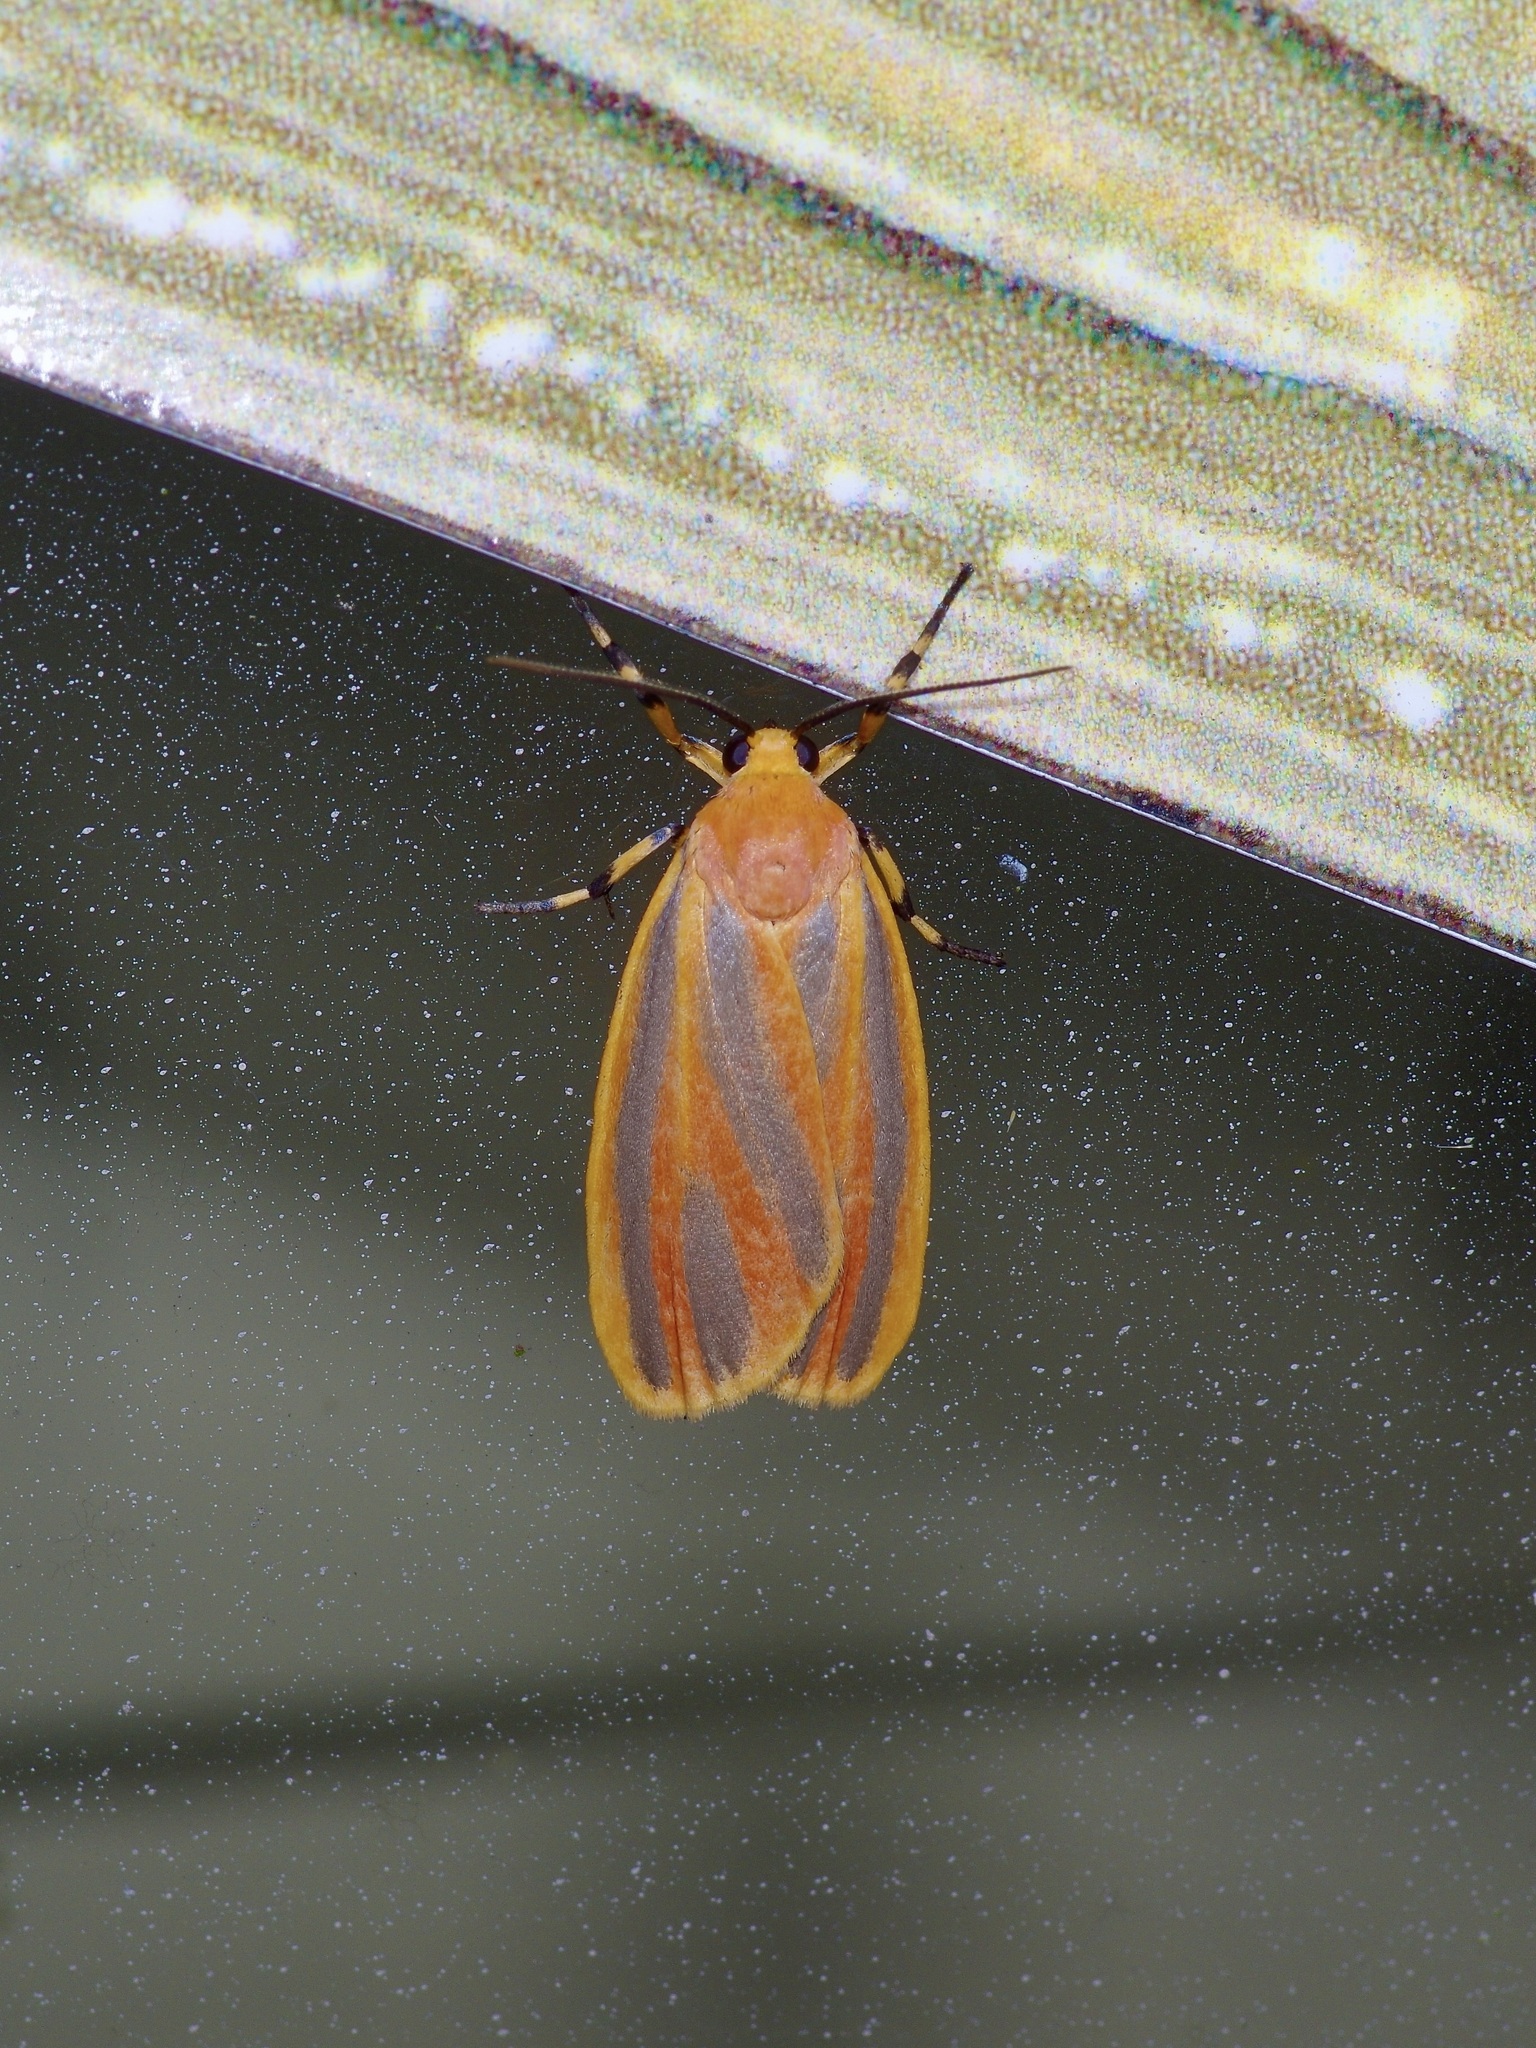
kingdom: Animalia
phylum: Arthropoda
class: Insecta
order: Lepidoptera
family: Erebidae
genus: Hypoprepia
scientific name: Hypoprepia fucosa
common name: Painted lichen moth
